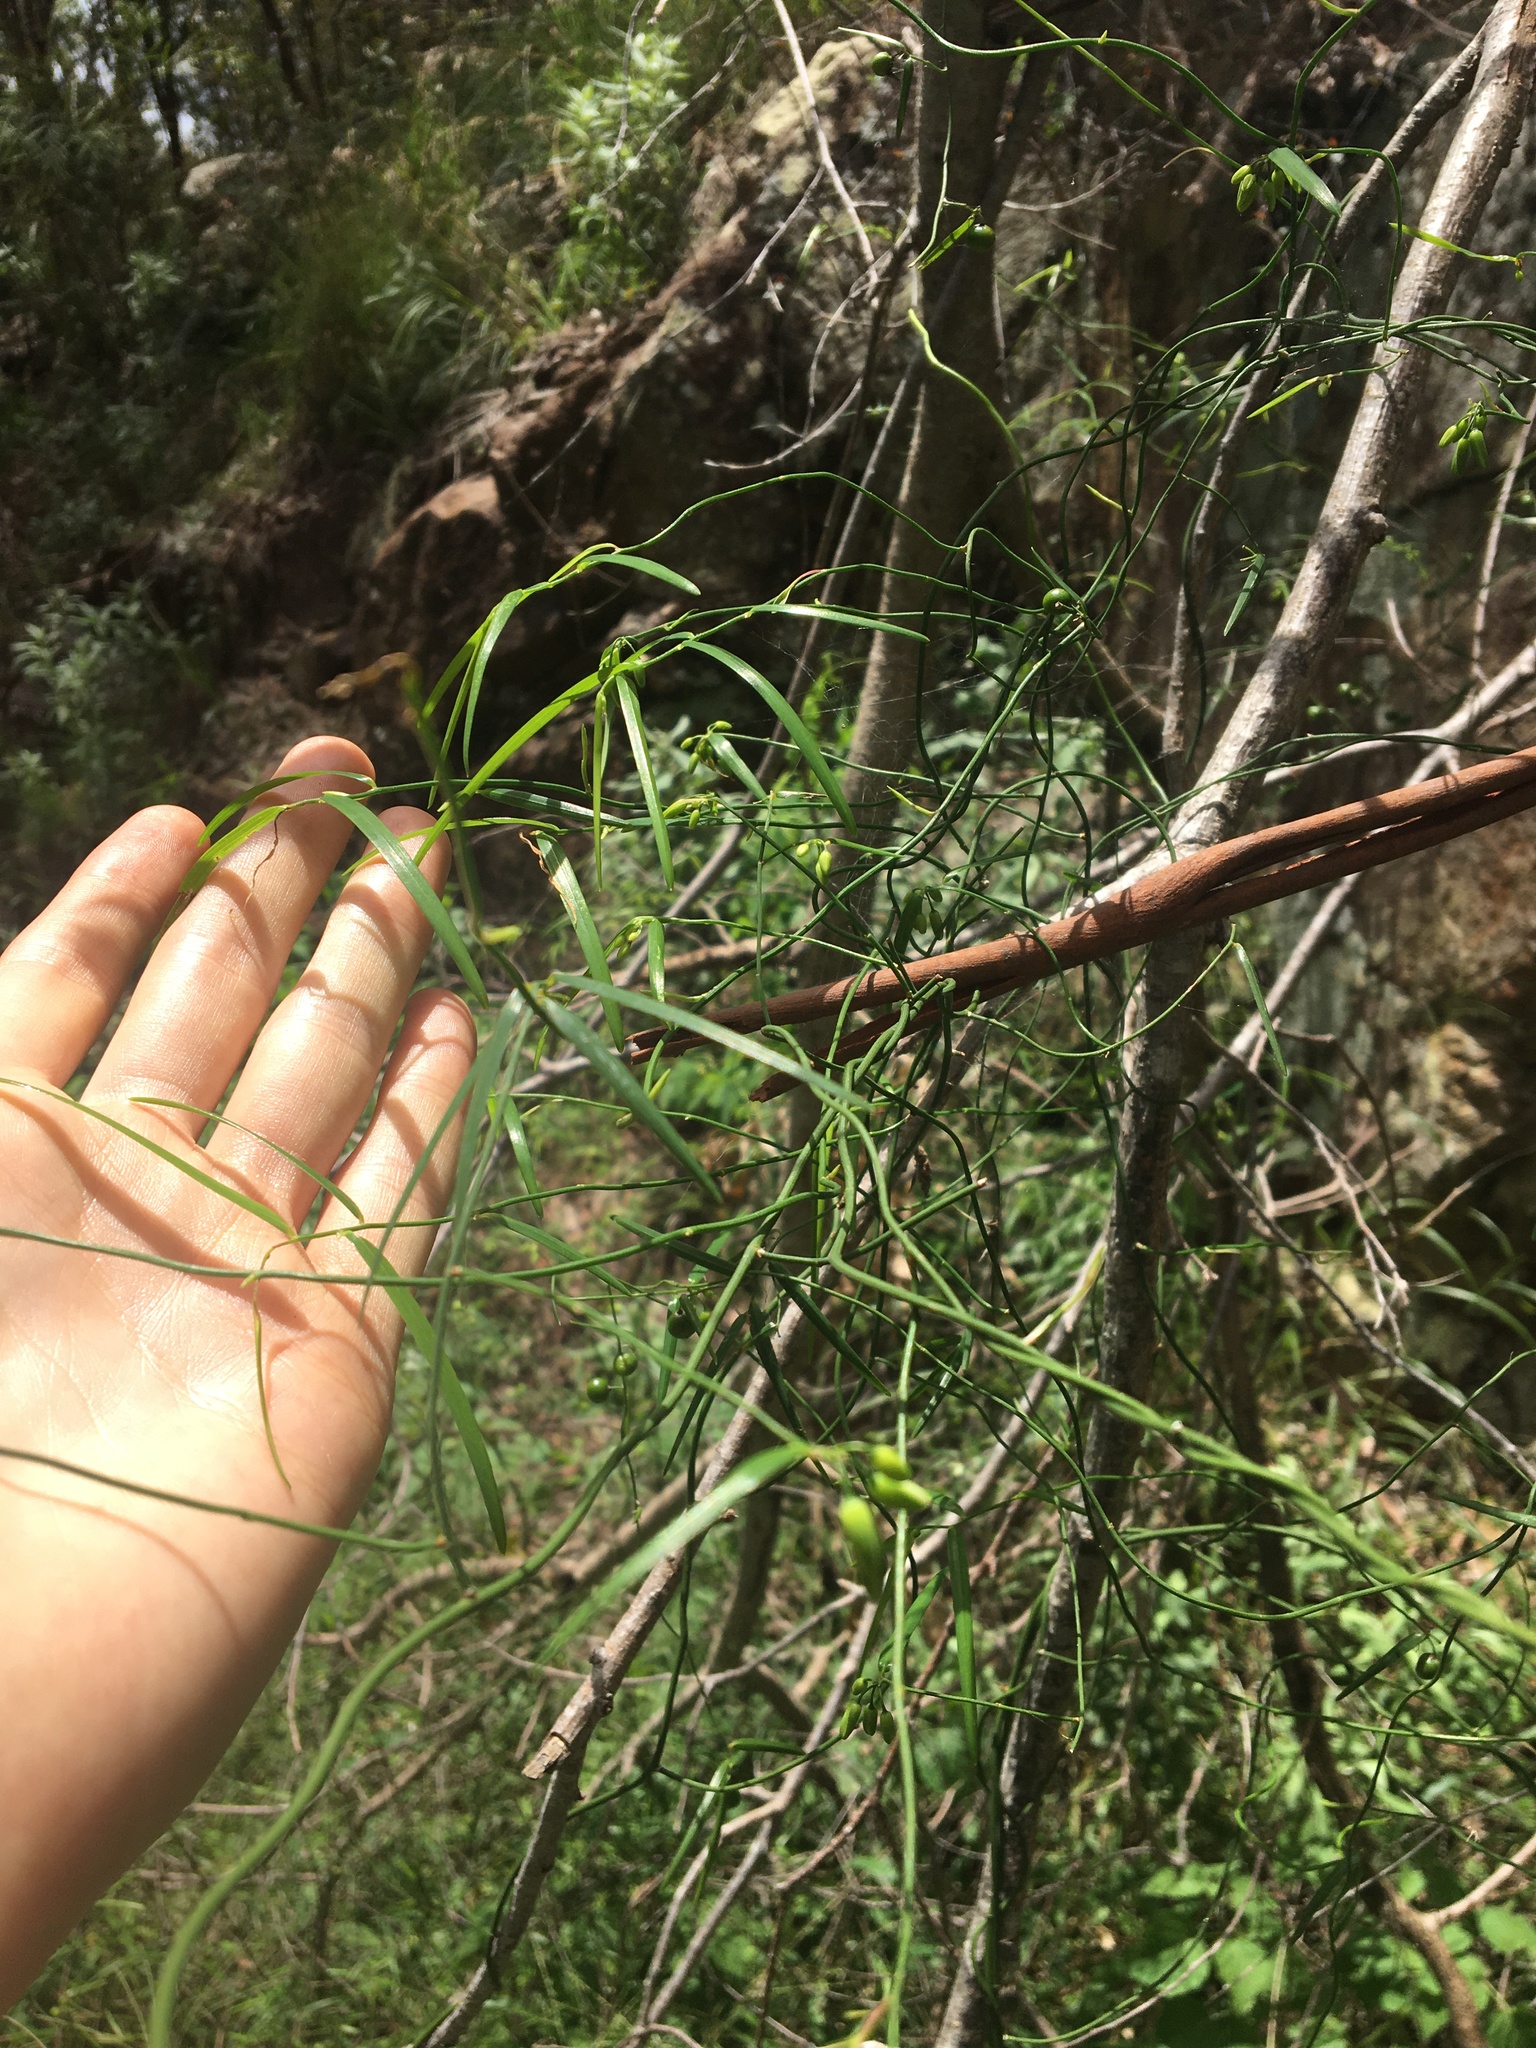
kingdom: Plantae
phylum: Tracheophyta
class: Liliopsida
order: Asparagales
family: Asphodelaceae
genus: Geitonoplesium
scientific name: Geitonoplesium cymosum
